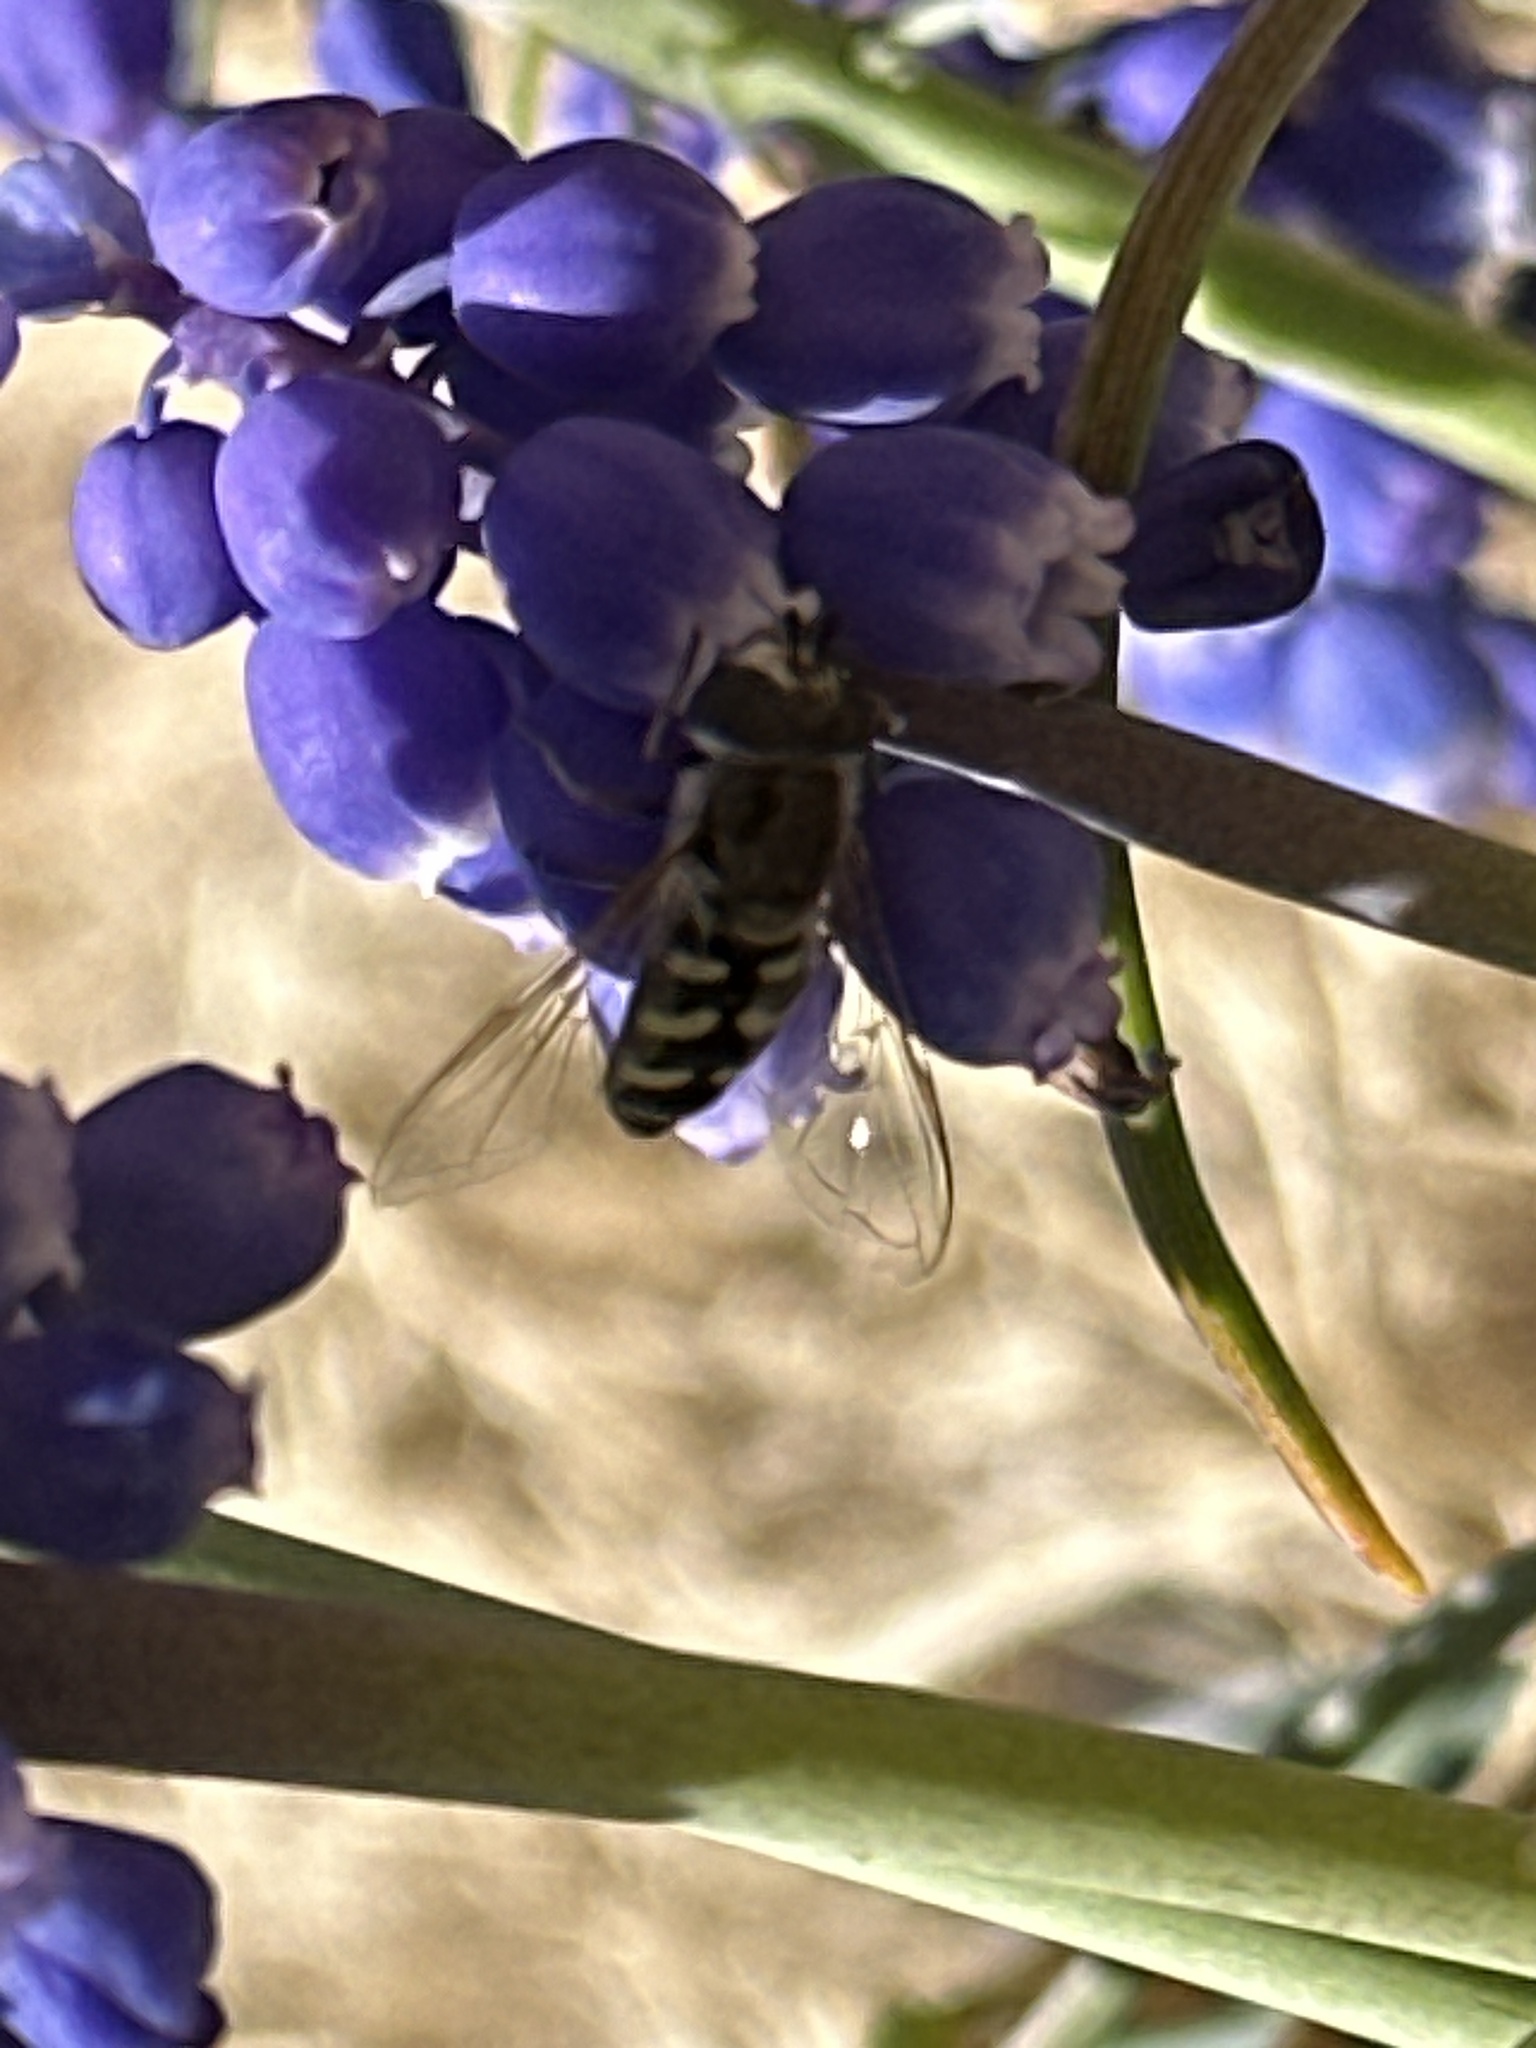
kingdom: Animalia
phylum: Arthropoda
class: Insecta
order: Diptera
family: Syrphidae
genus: Eupeodes
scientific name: Eupeodes volucris
